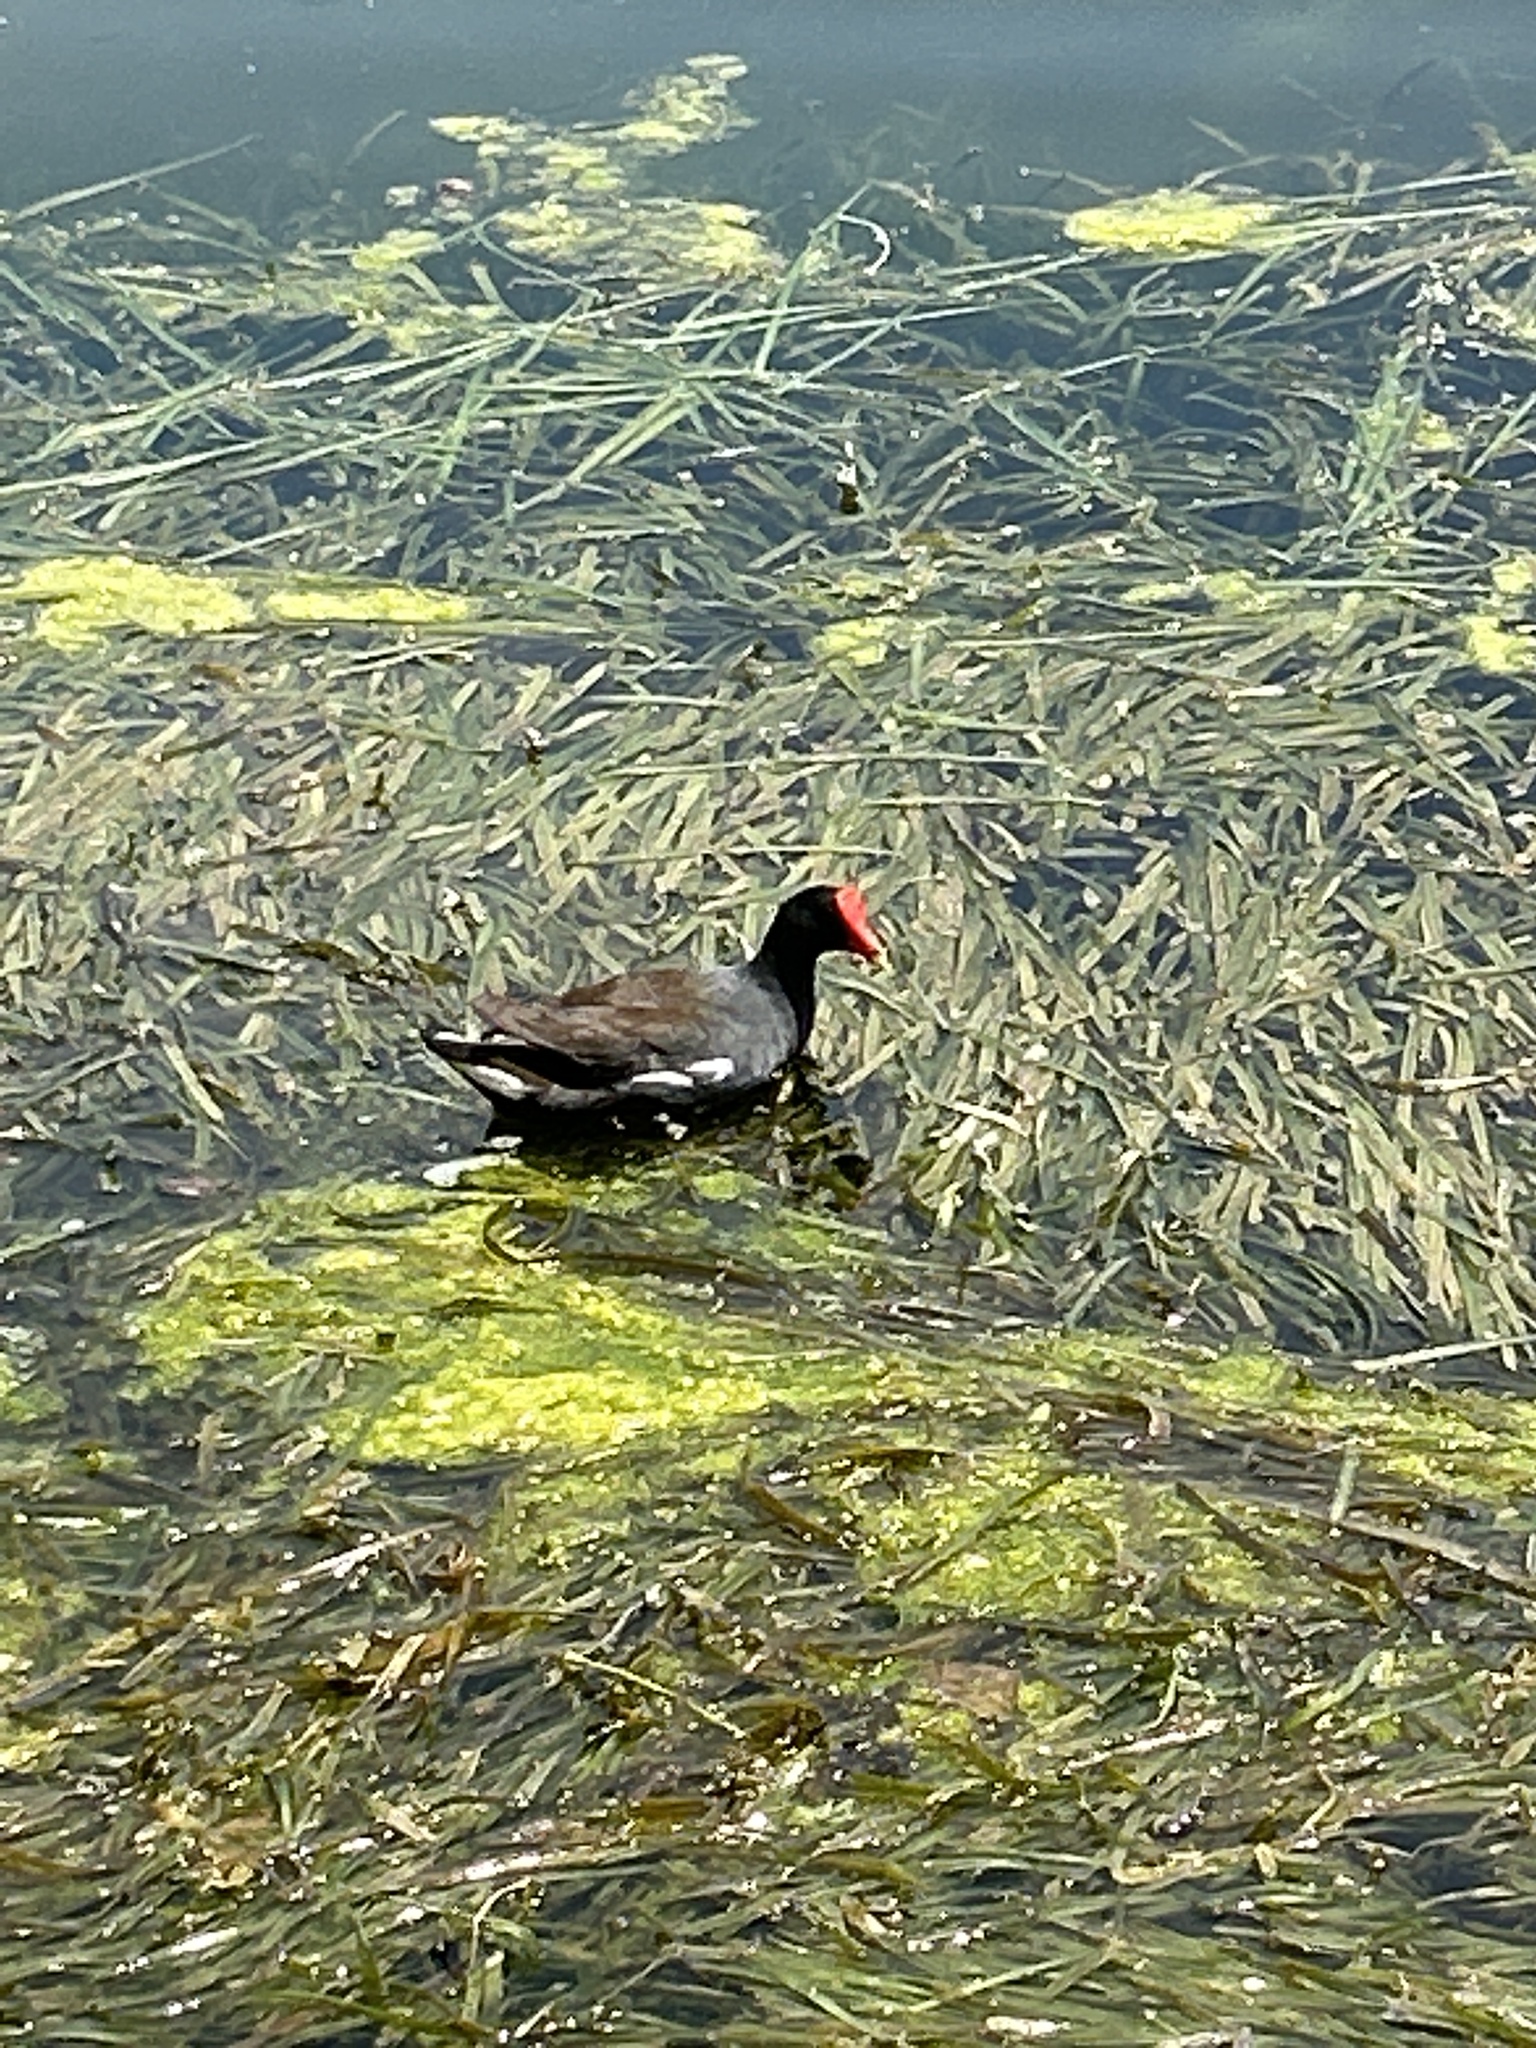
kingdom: Animalia
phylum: Chordata
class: Aves
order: Gruiformes
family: Rallidae
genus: Gallinula
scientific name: Gallinula chloropus
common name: Common moorhen
